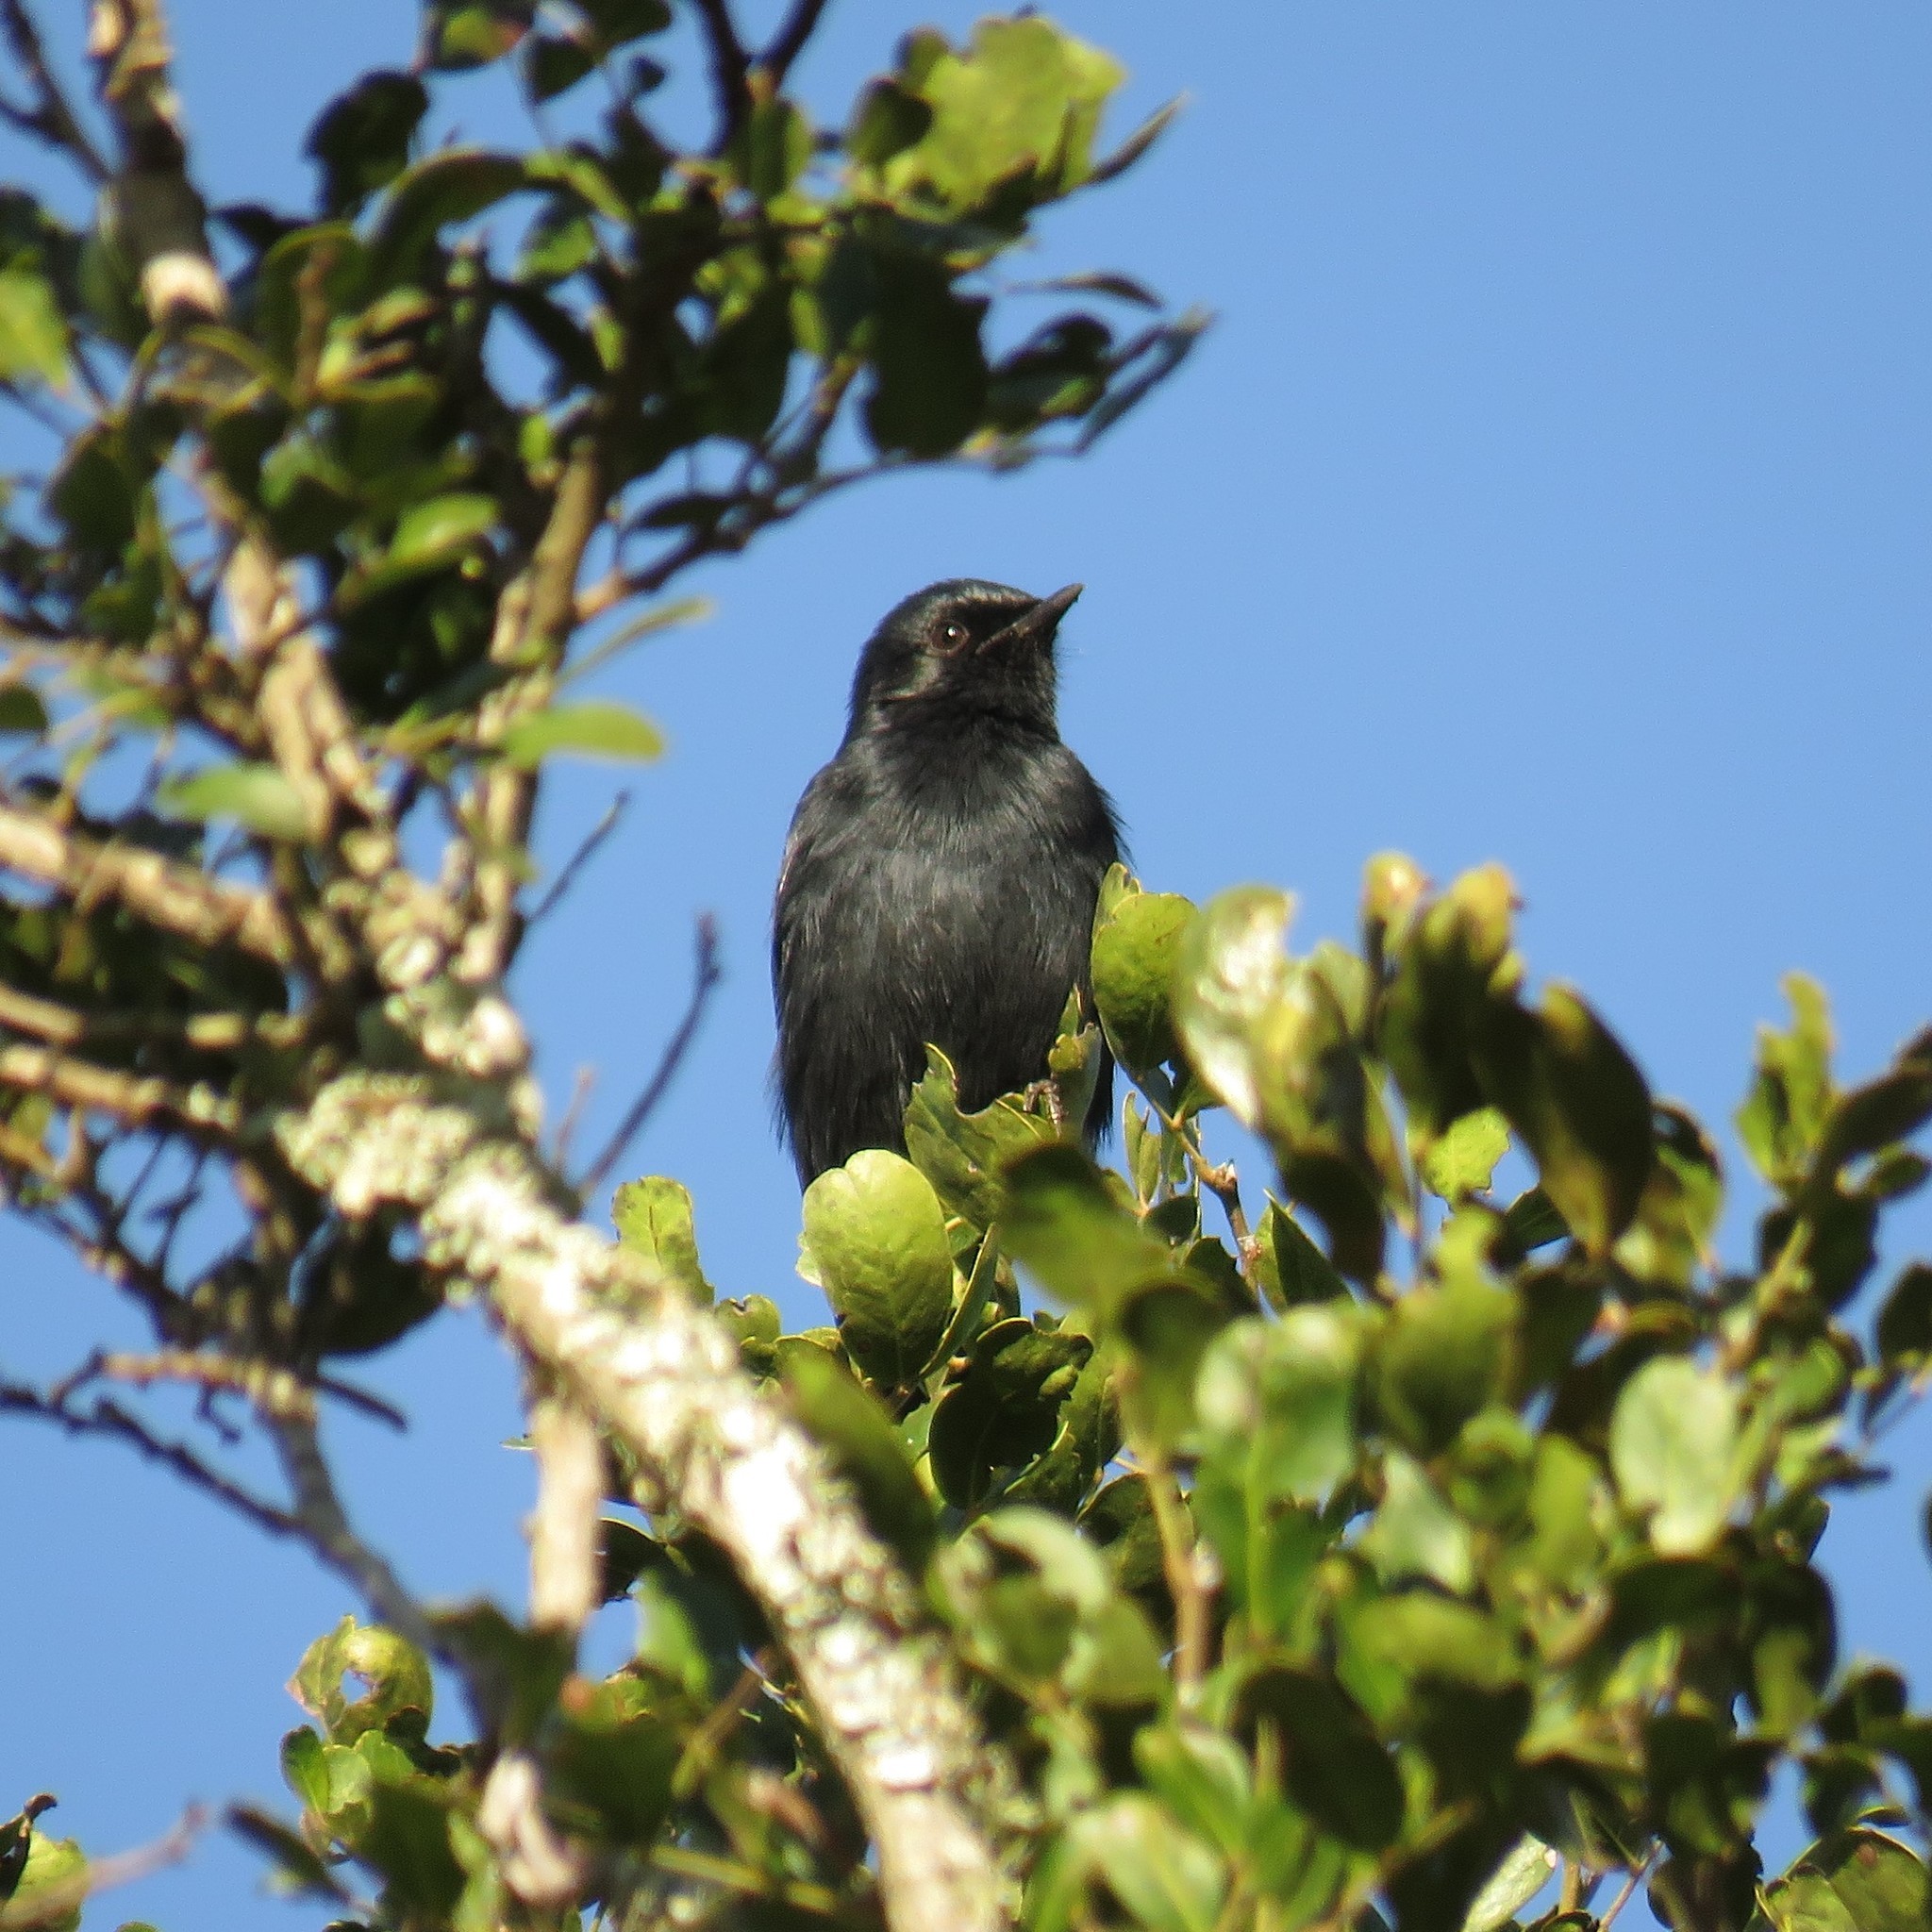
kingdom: Animalia
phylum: Chordata
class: Aves
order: Passeriformes
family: Muscicapidae
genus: Melaenornis
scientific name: Melaenornis pammelaina
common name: Southern black flycatcher
